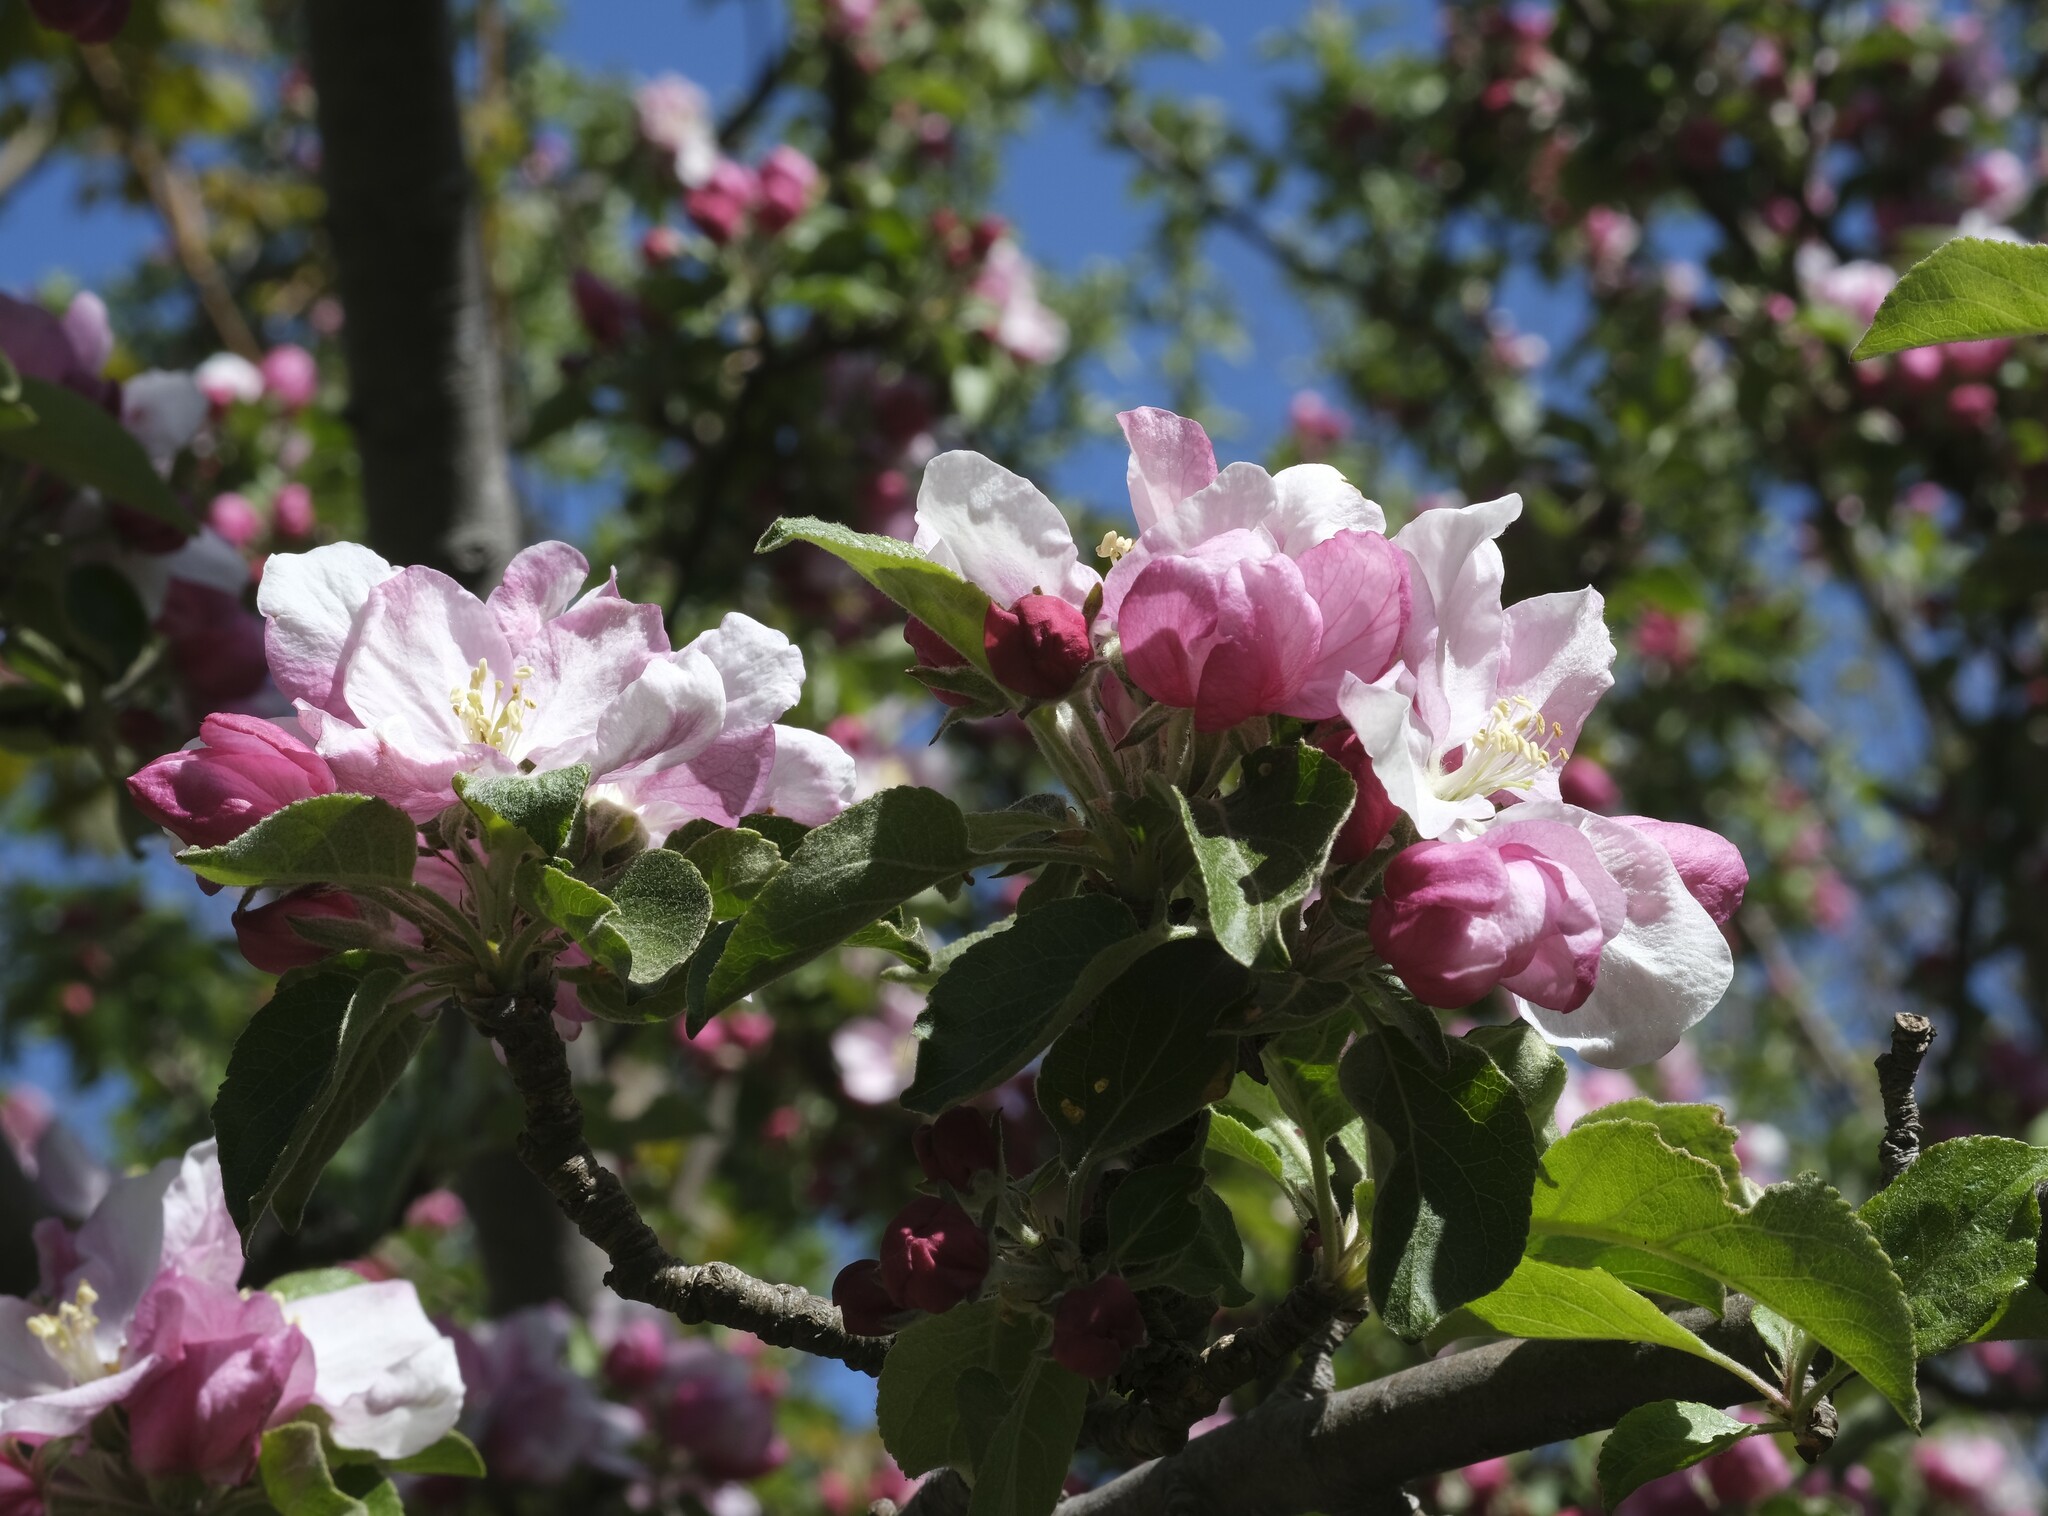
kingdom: Plantae
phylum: Tracheophyta
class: Magnoliopsida
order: Rosales
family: Rosaceae
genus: Malus
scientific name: Malus domestica
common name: Apple
